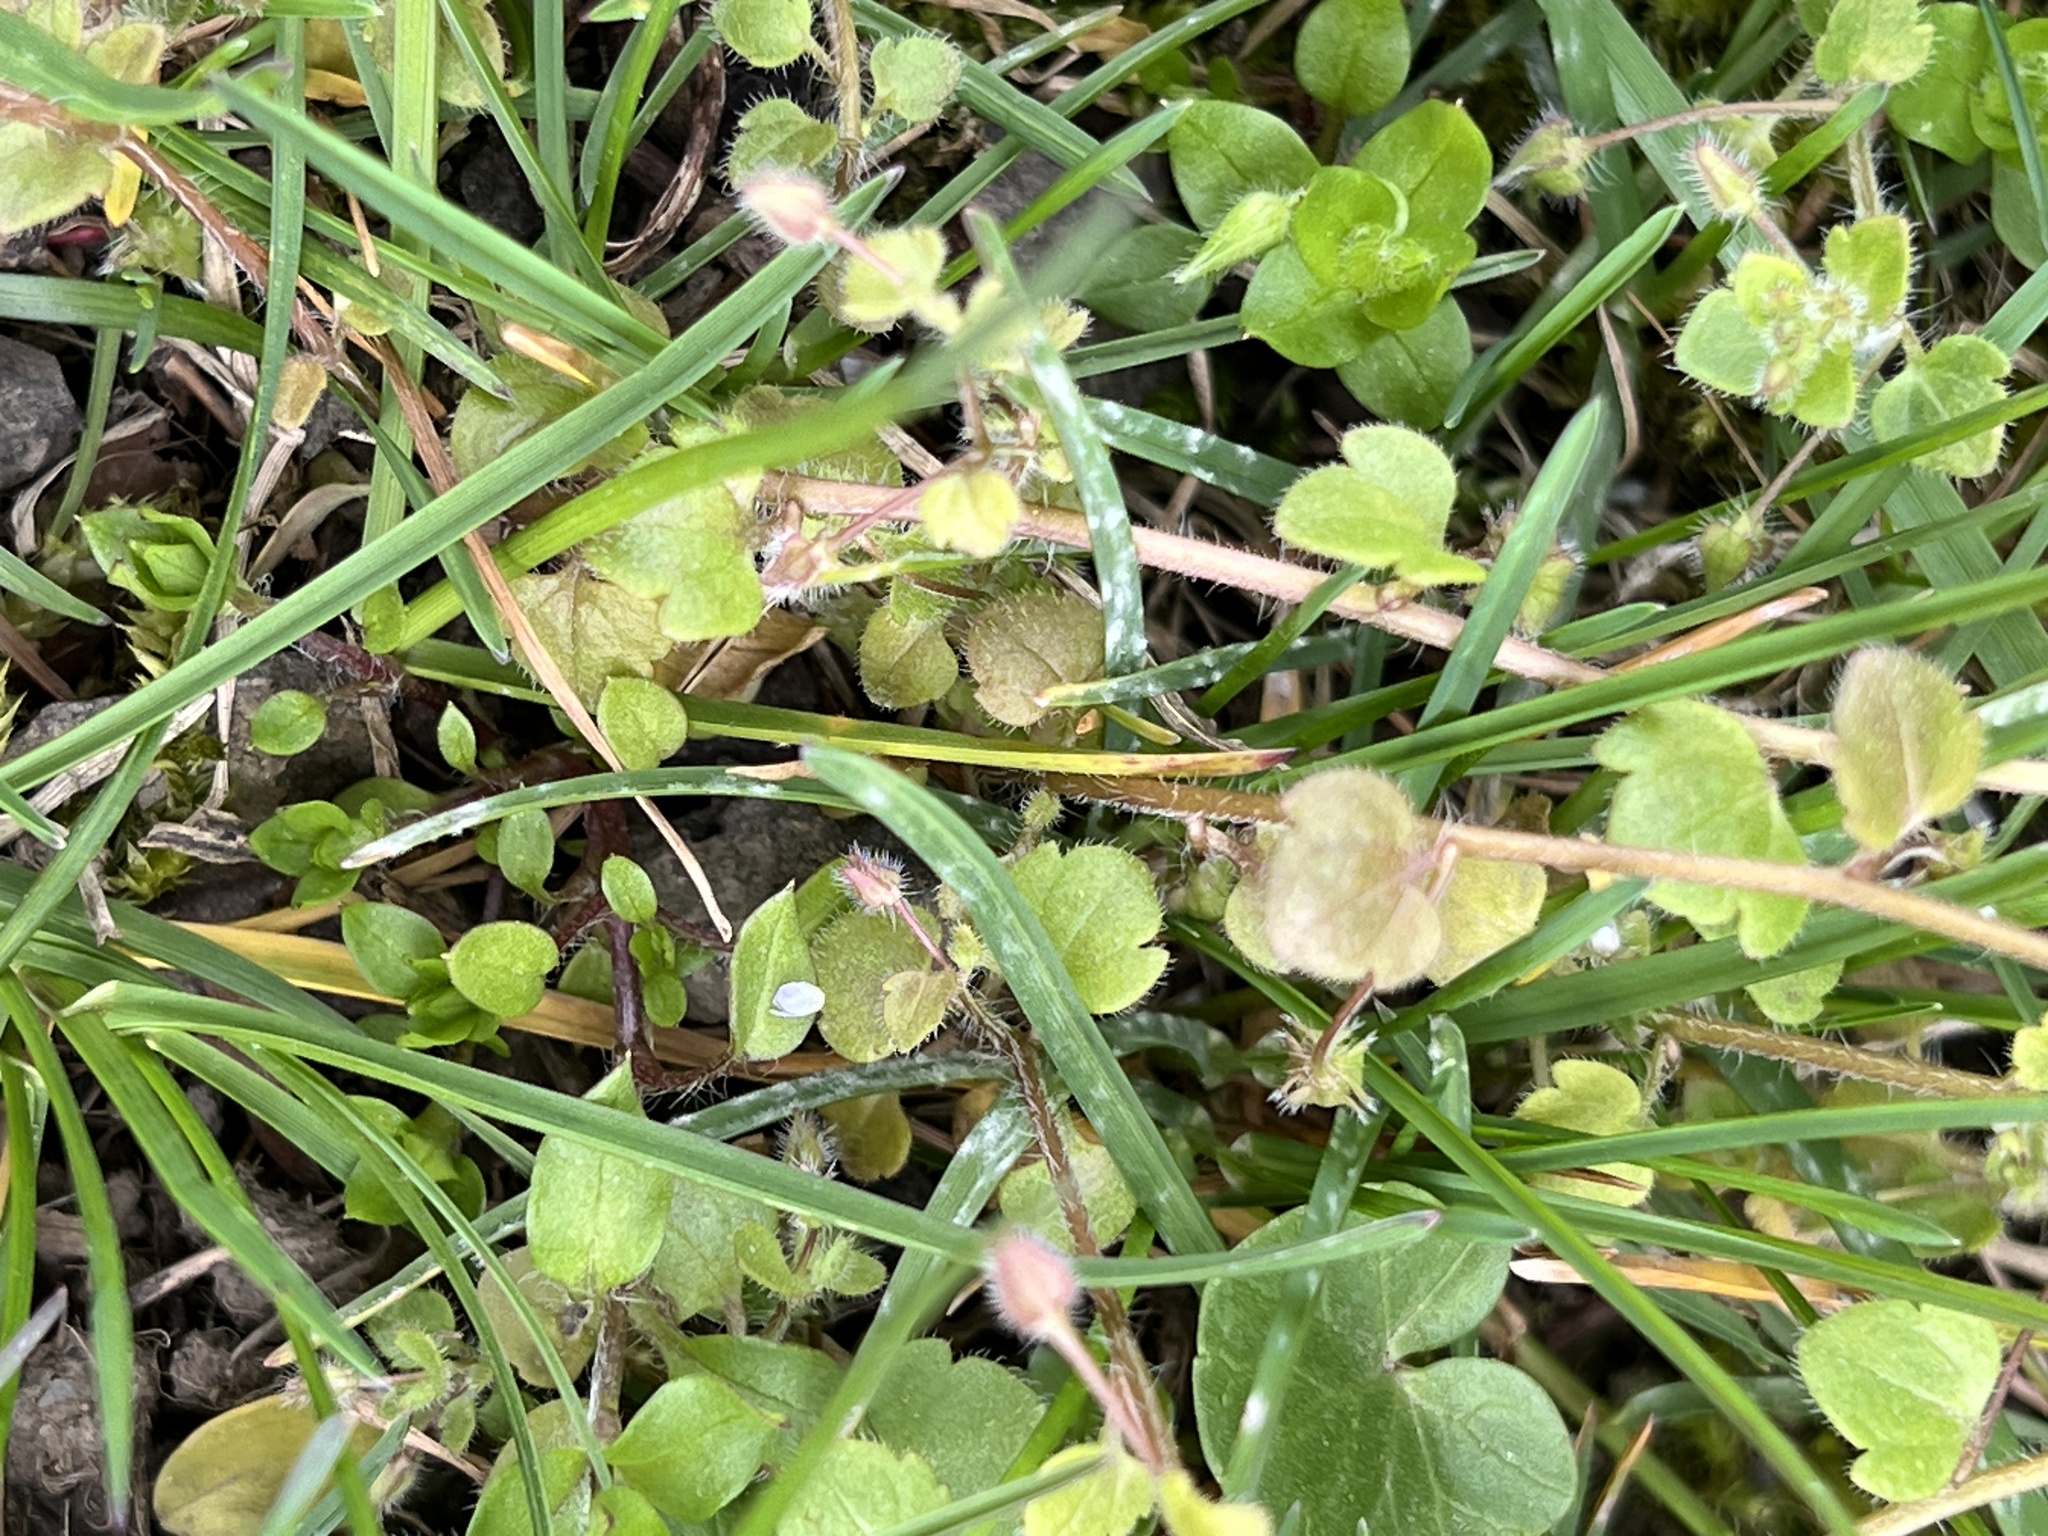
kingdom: Plantae
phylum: Tracheophyta
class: Magnoliopsida
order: Lamiales
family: Plantaginaceae
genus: Veronica
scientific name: Veronica sublobata
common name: False ivy-leaved speedwell
